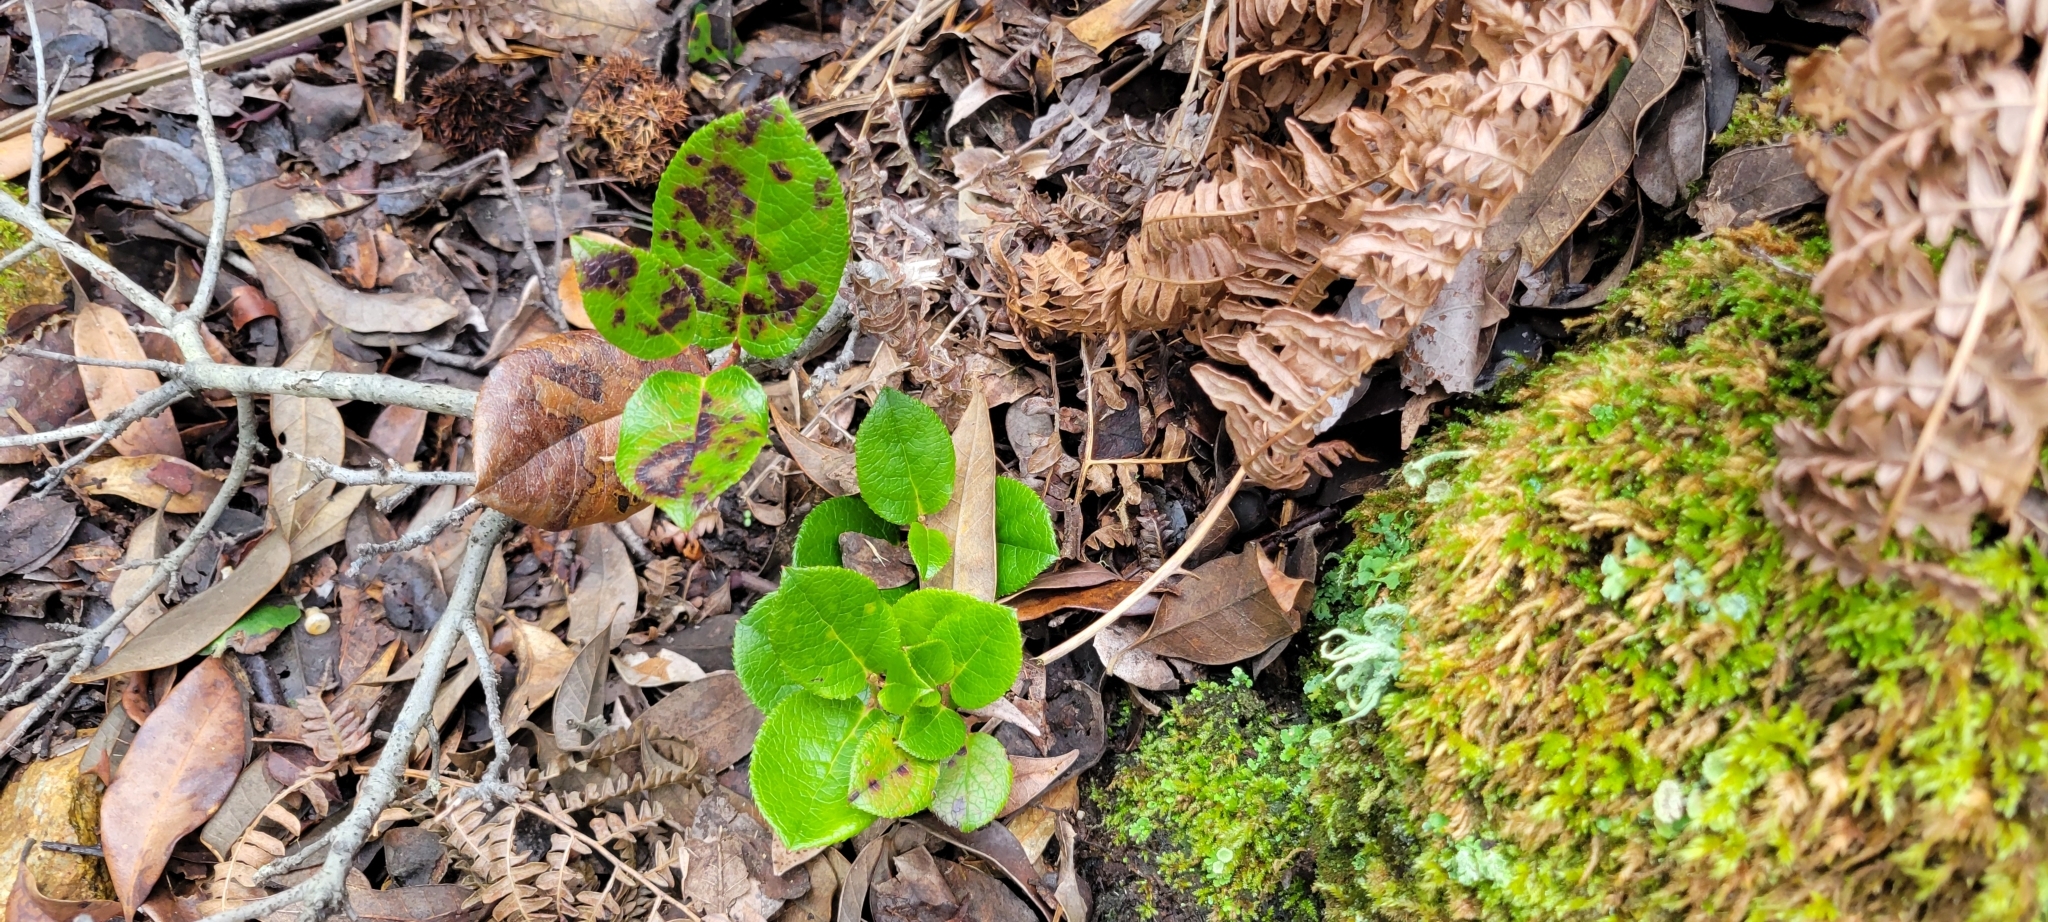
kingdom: Plantae
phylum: Tracheophyta
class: Magnoliopsida
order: Ericales
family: Ericaceae
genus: Gaultheria
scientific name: Gaultheria shallon
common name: Shallon
